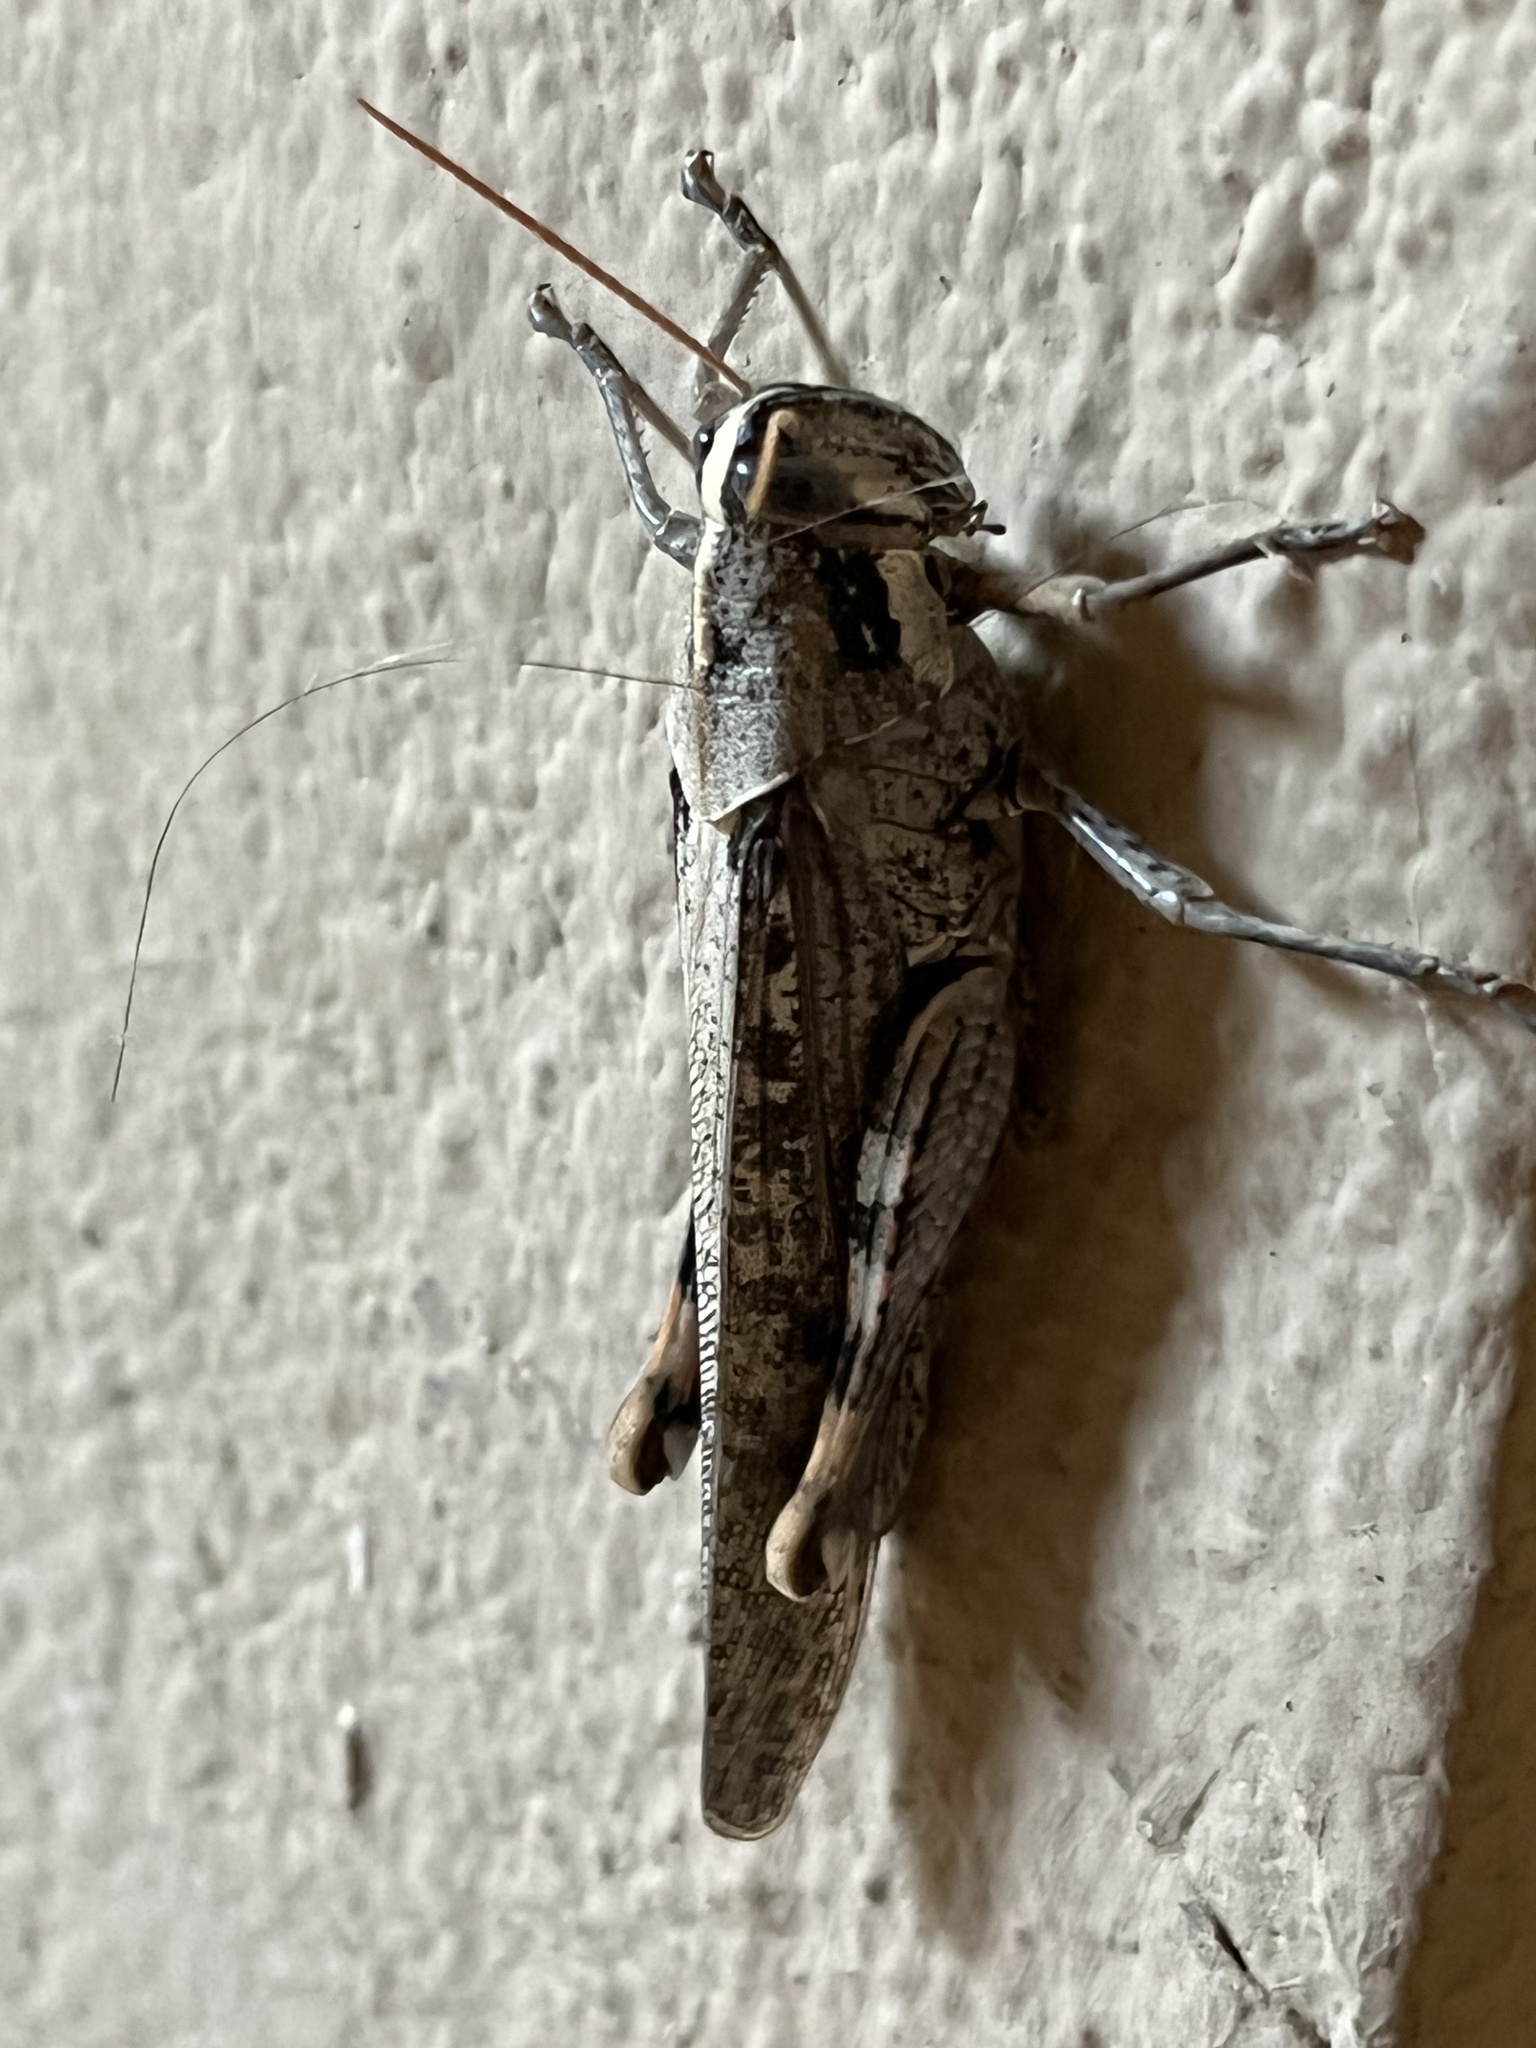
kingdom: Animalia
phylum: Arthropoda
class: Insecta
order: Orthoptera
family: Acrididae
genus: Schistocerca
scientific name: Schistocerca nitens
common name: Vagrant grasshopper
